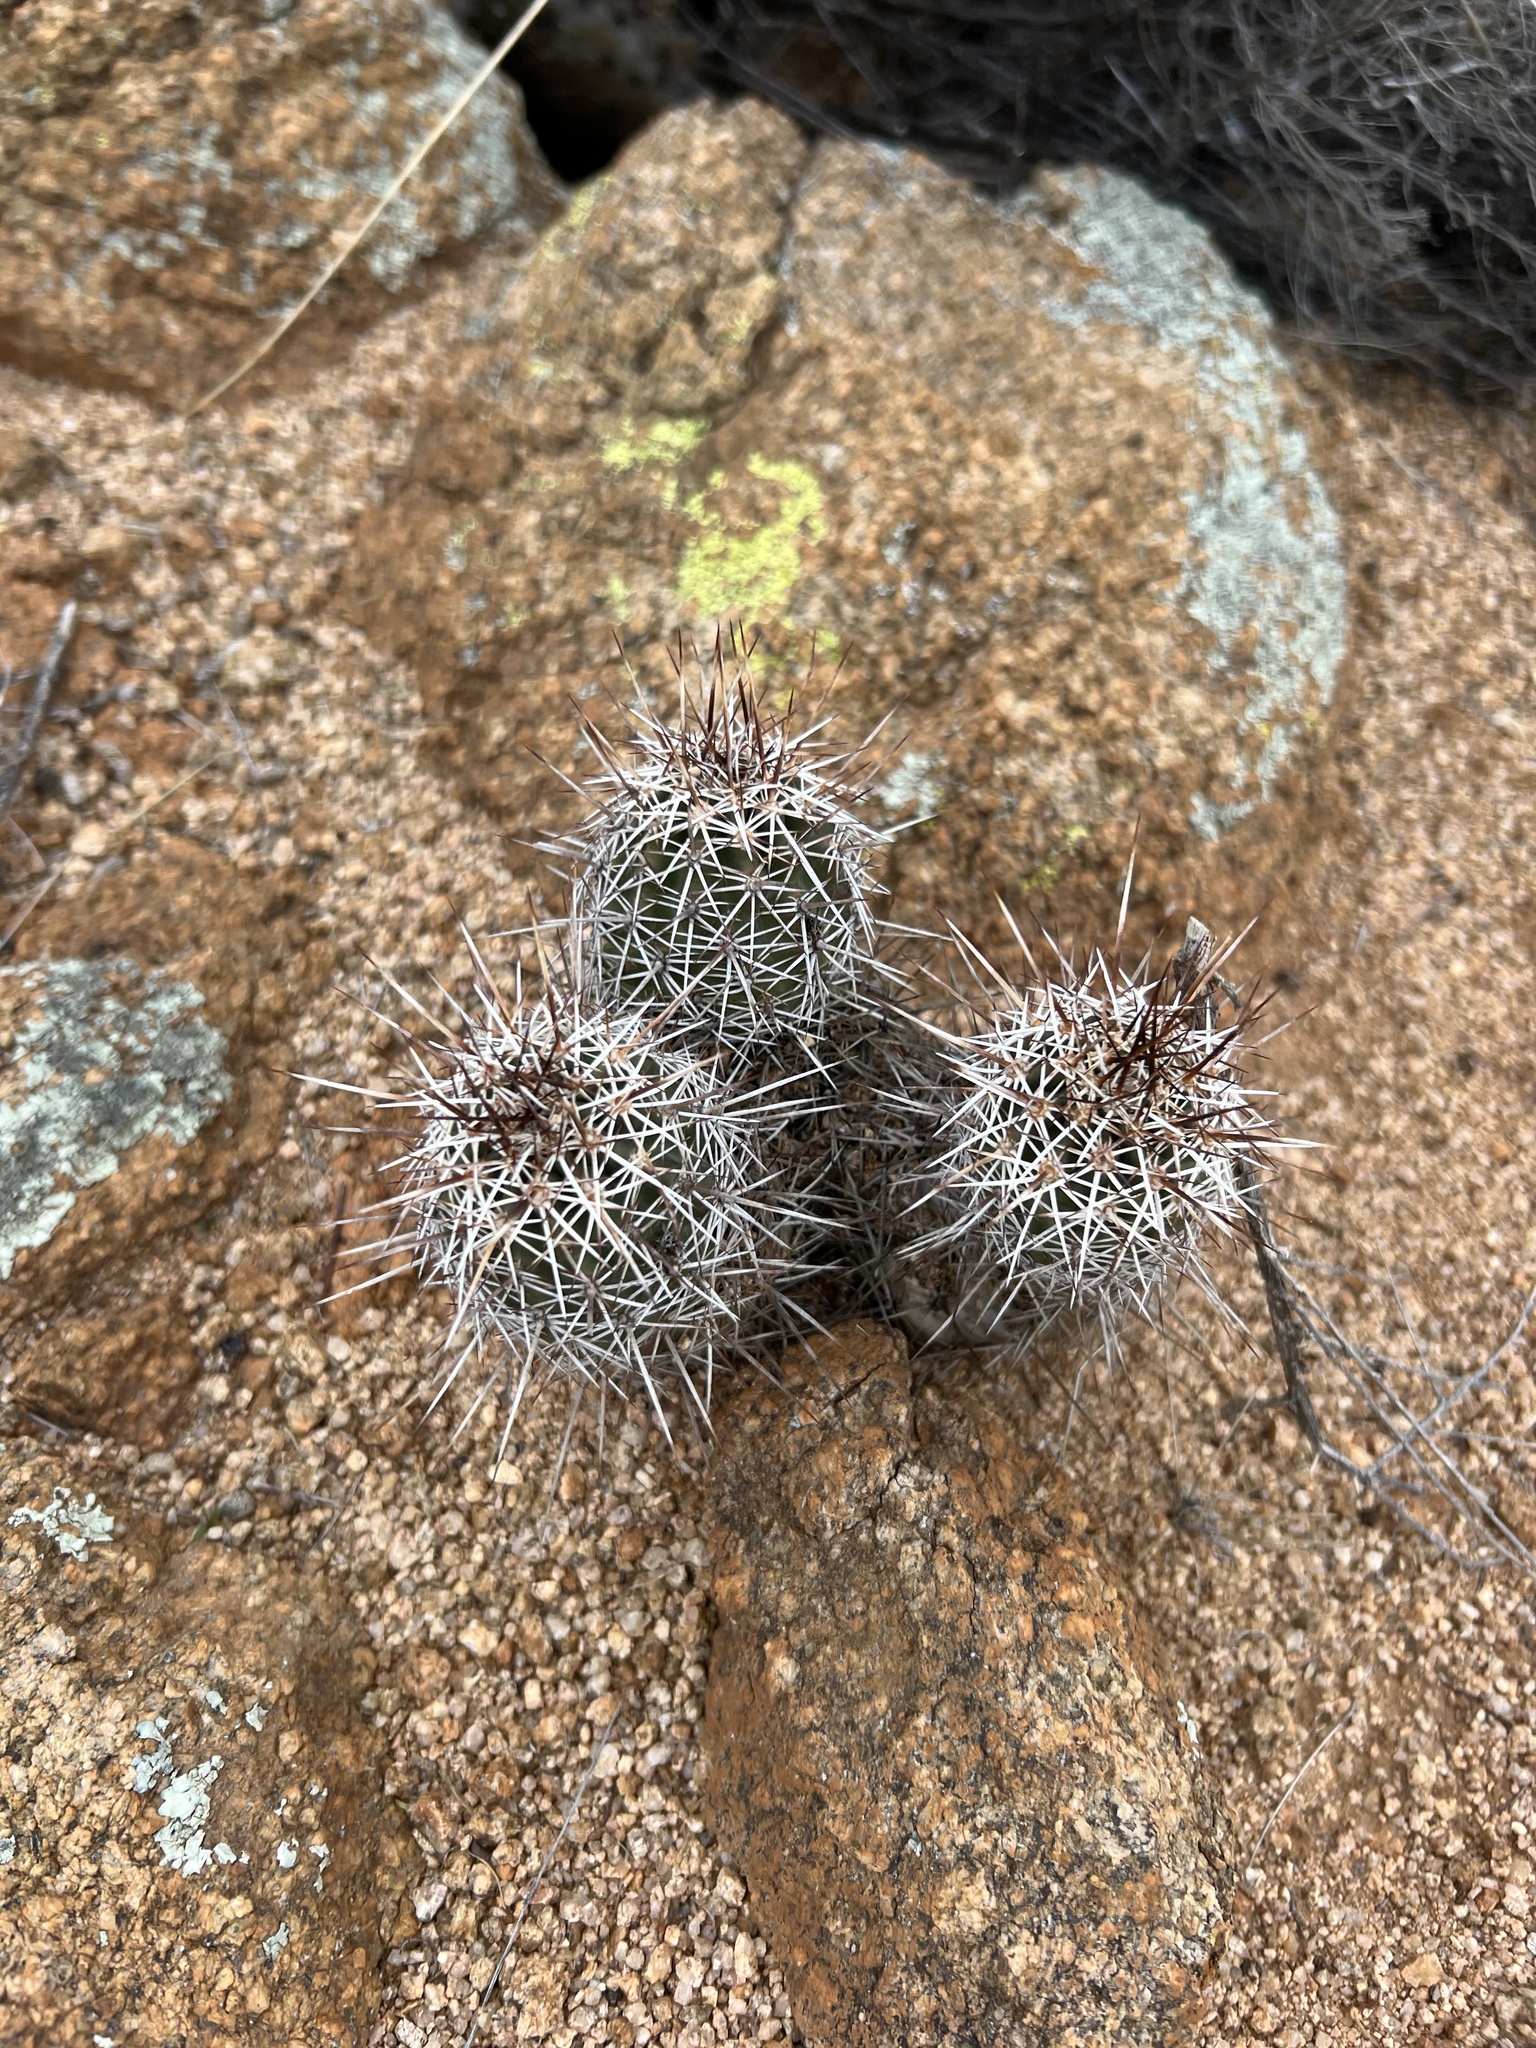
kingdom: Plantae
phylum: Tracheophyta
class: Magnoliopsida
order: Caryophyllales
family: Cactaceae
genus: Echinocereus
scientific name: Echinocereus fasciculatus
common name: Bundle hedgehog
